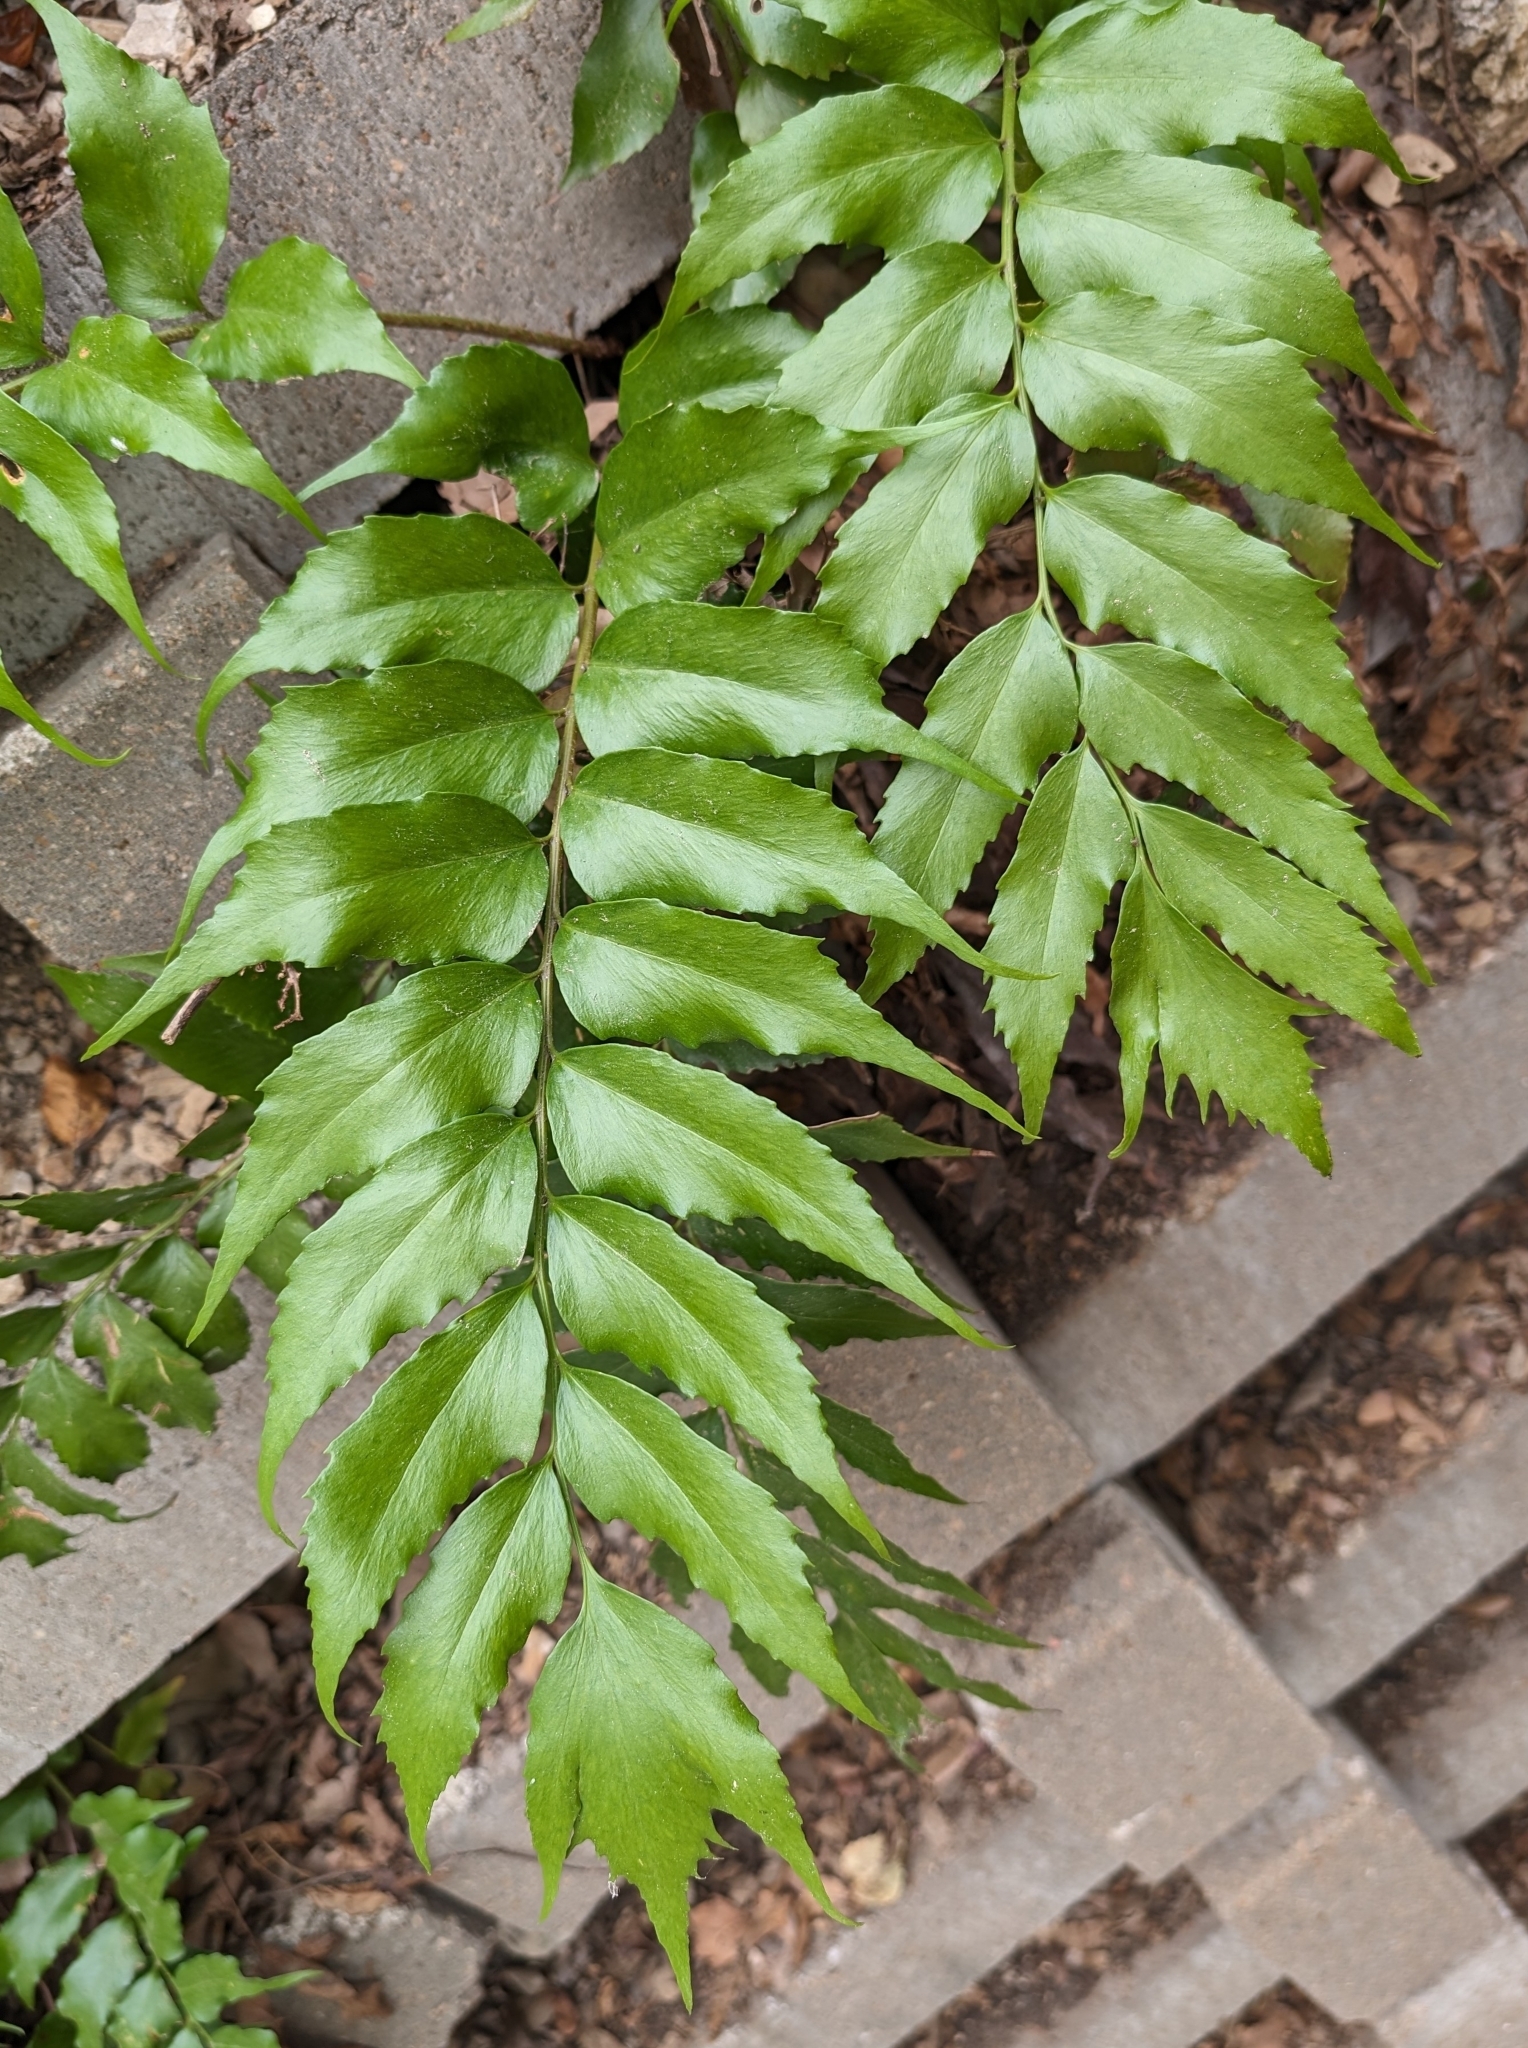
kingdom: Plantae
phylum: Tracheophyta
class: Polypodiopsida
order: Polypodiales
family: Dryopteridaceae
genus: Cyrtomium
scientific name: Cyrtomium falcatum
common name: House holly-fern
